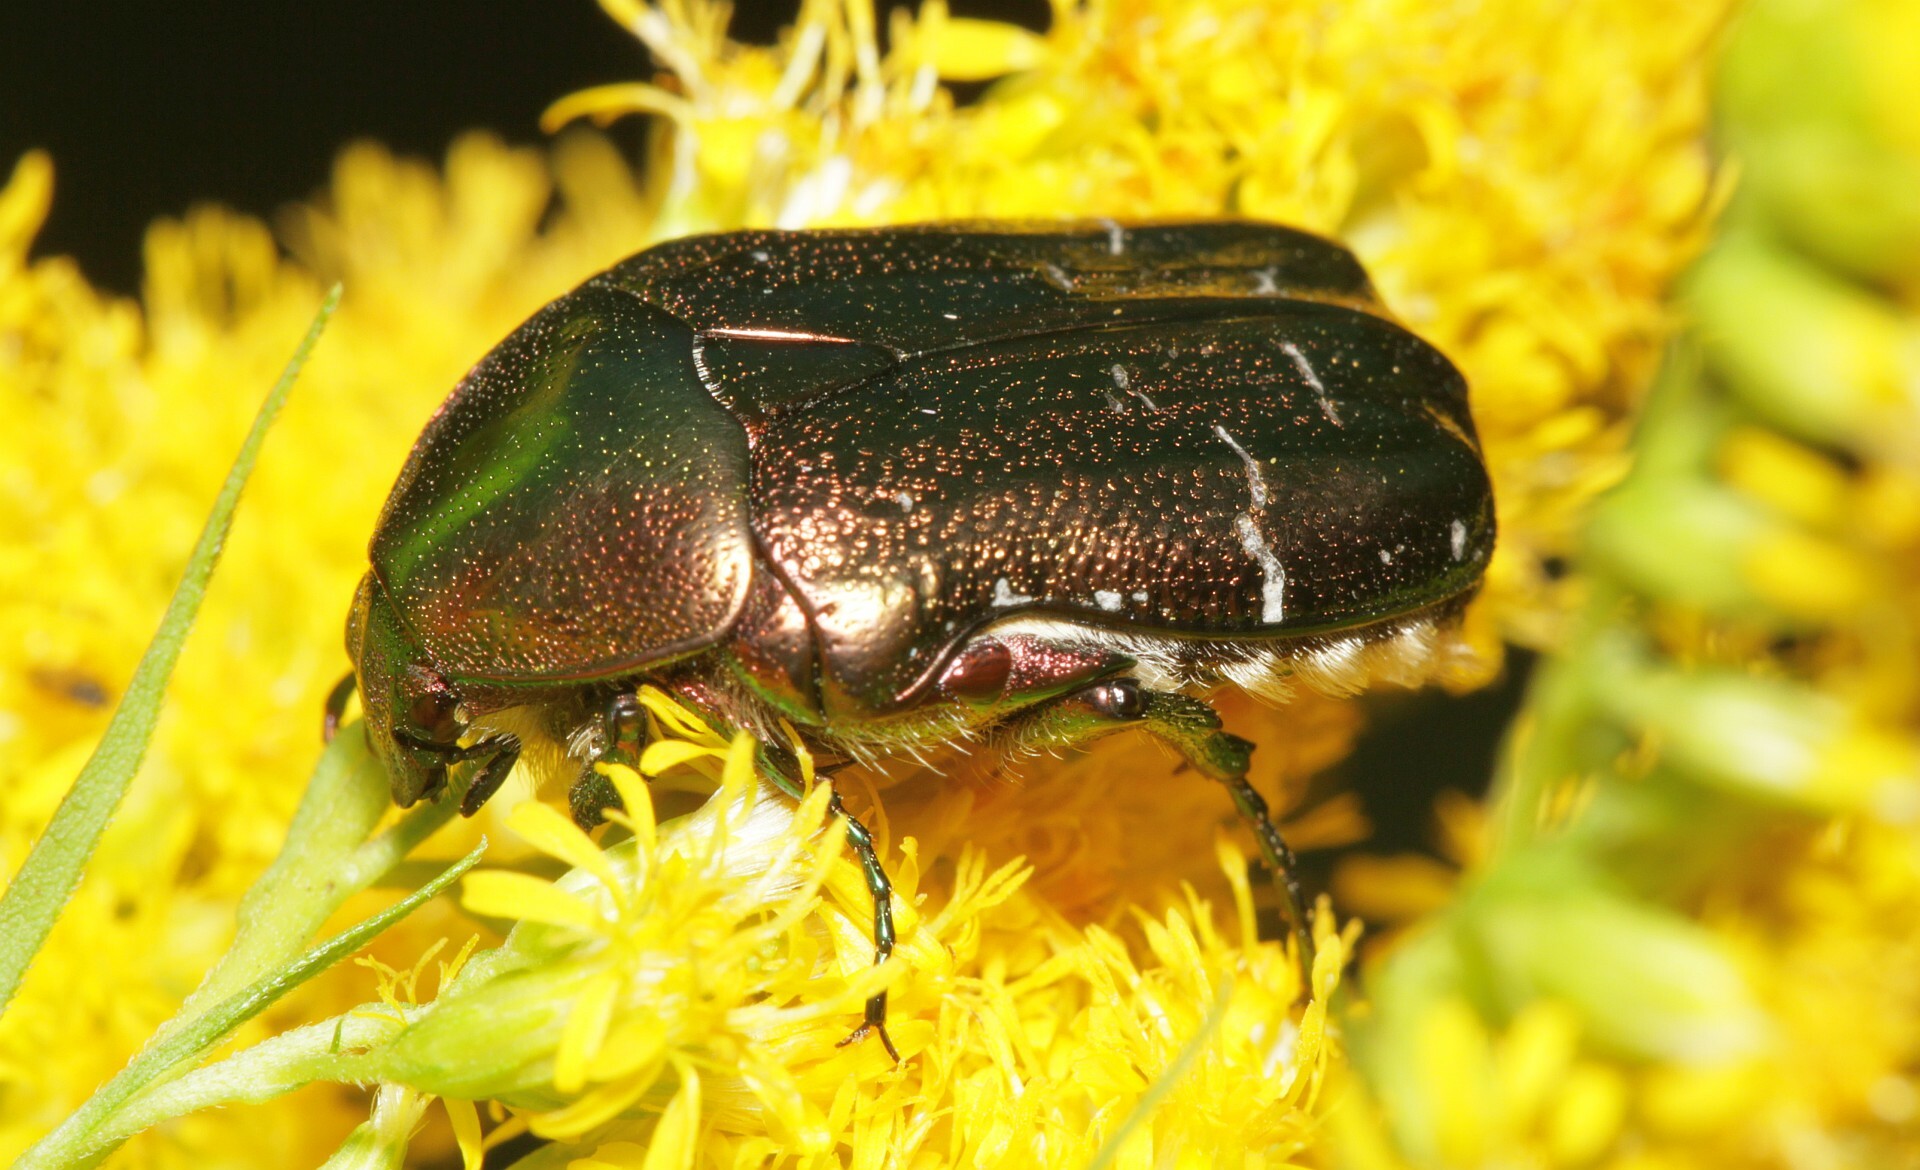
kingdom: Animalia
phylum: Arthropoda
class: Insecta
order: Coleoptera
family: Scarabaeidae
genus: Cetonia
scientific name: Cetonia aurata
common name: Rose chafer
